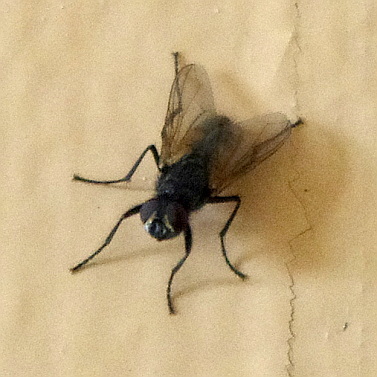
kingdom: Animalia
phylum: Arthropoda
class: Insecta
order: Diptera
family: Muscidae
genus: Musca
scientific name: Musca domestica
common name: House fly
